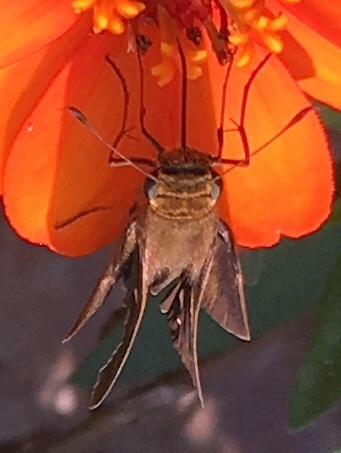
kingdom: Animalia
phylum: Arthropoda
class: Insecta
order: Lepidoptera
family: Hesperiidae
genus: Panoquina
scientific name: Panoquina ocola
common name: Ocola skipper
